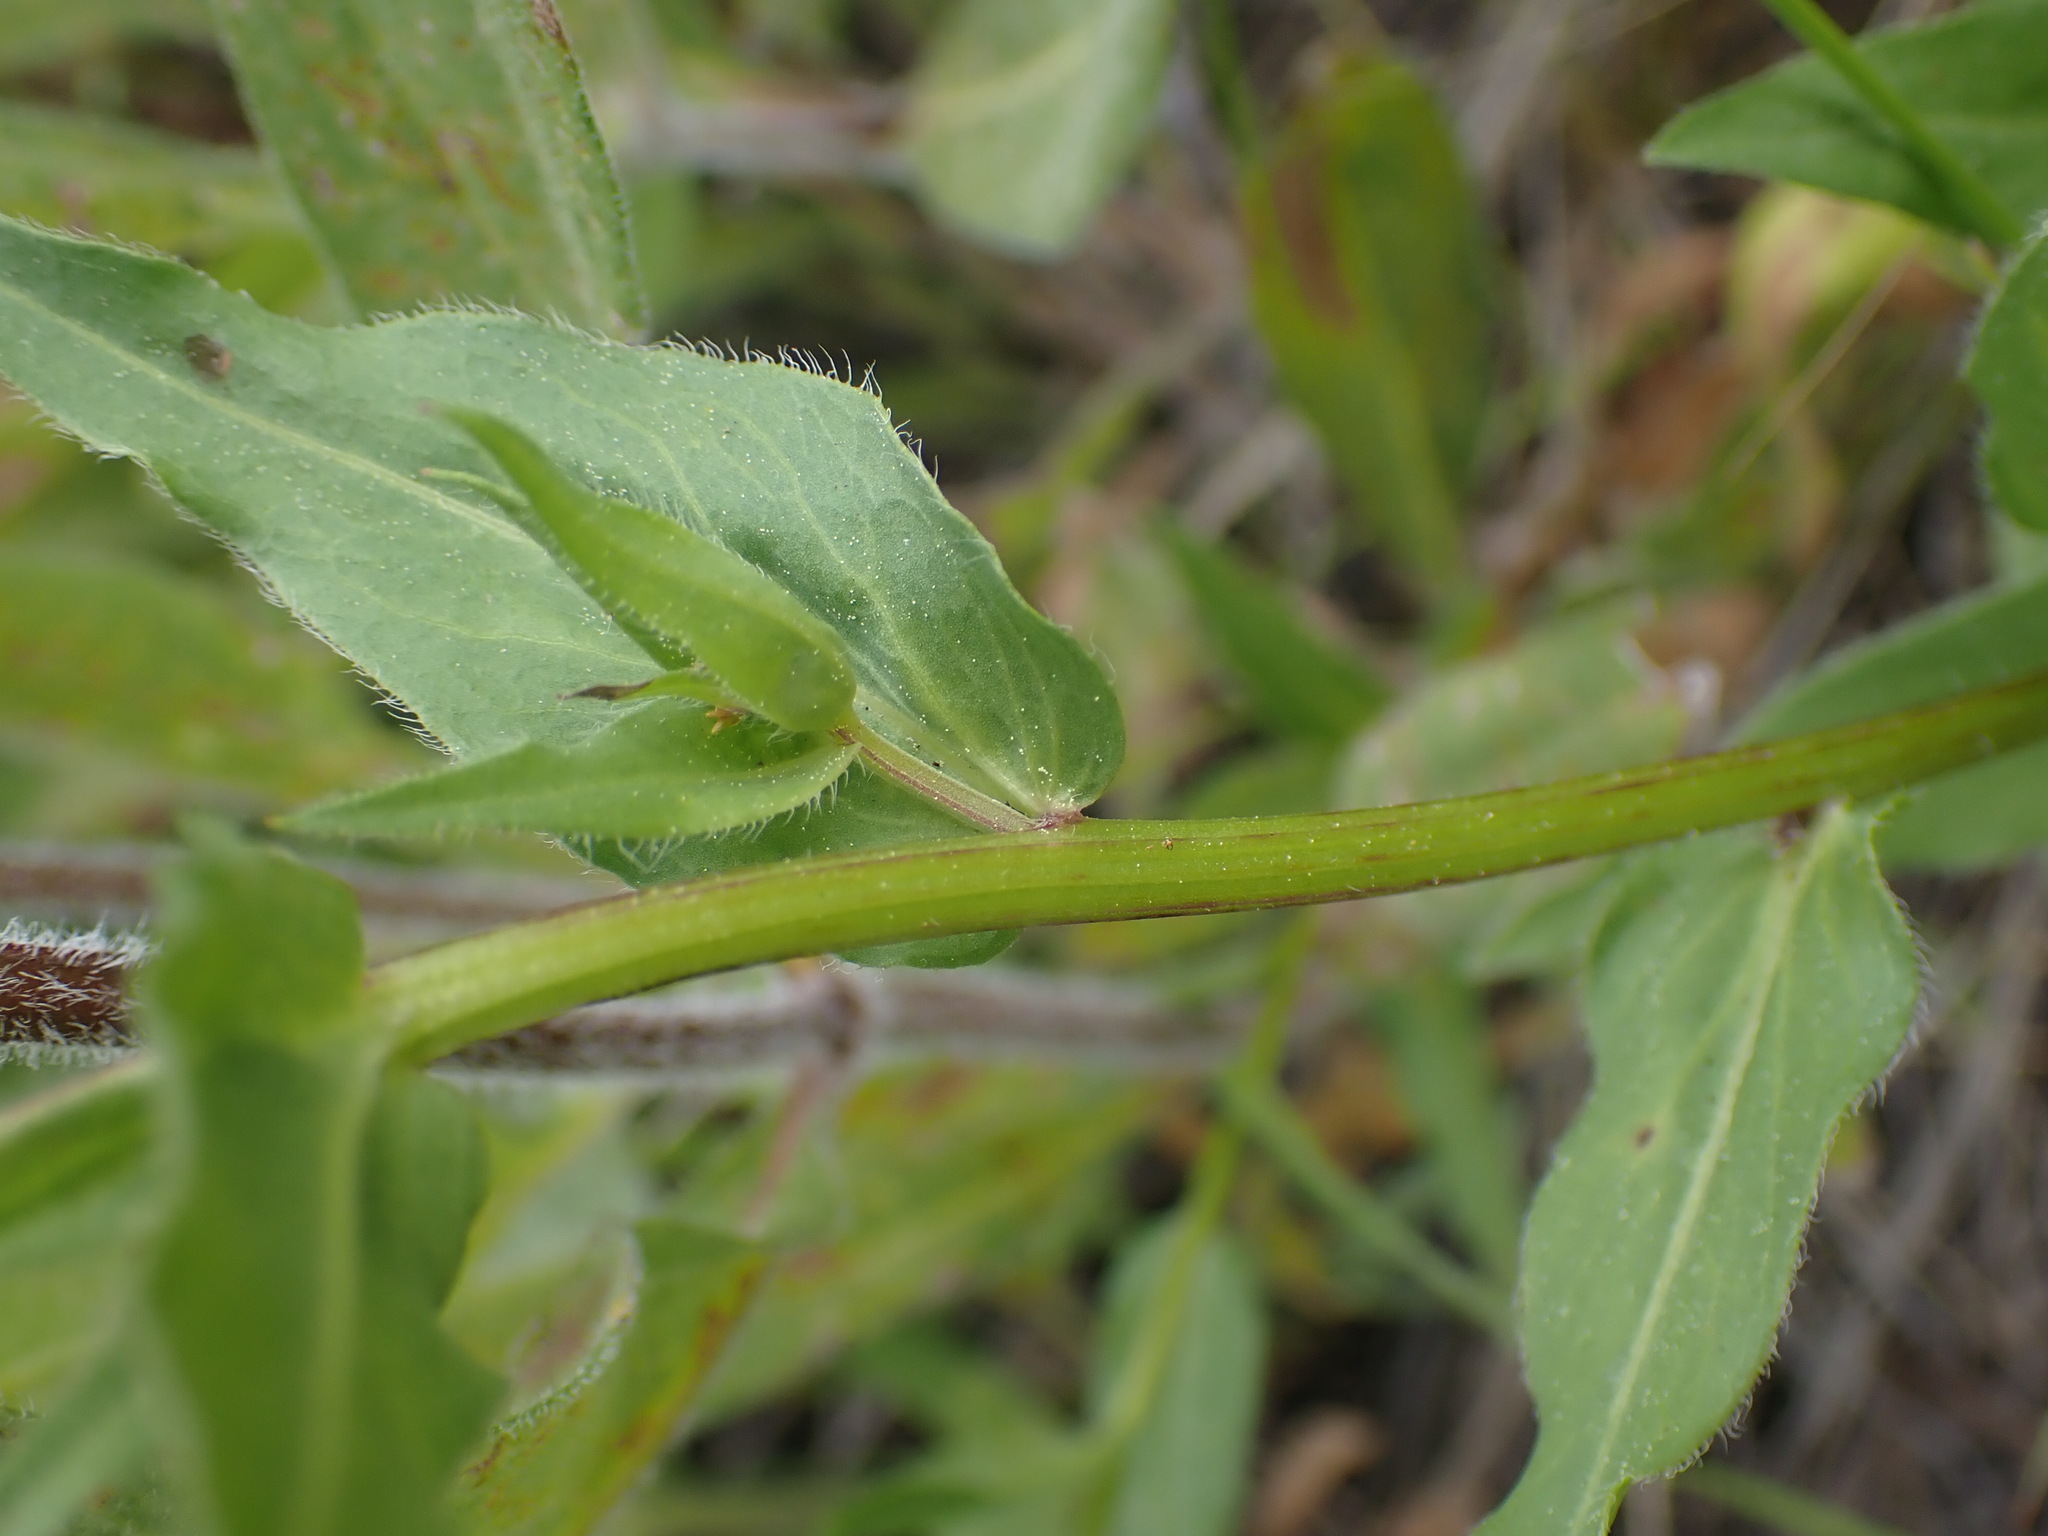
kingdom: Plantae
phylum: Tracheophyta
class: Magnoliopsida
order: Asterales
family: Asteraceae
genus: Erigeron
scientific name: Erigeron speciosus
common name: Aspen fleabane
